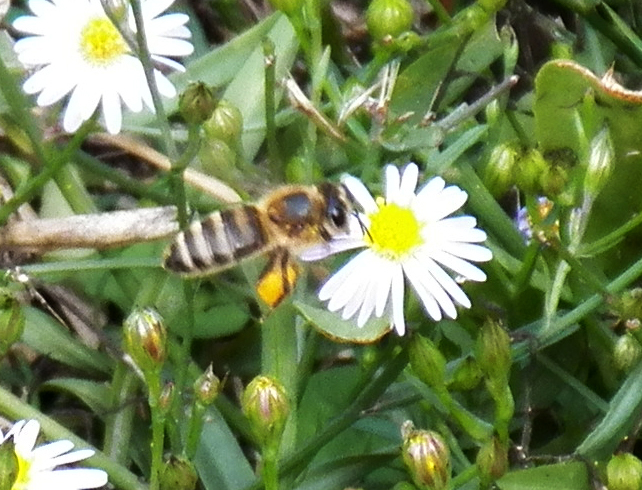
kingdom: Animalia
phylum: Arthropoda
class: Insecta
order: Hymenoptera
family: Apidae
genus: Apis
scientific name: Apis mellifera
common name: Honey bee
